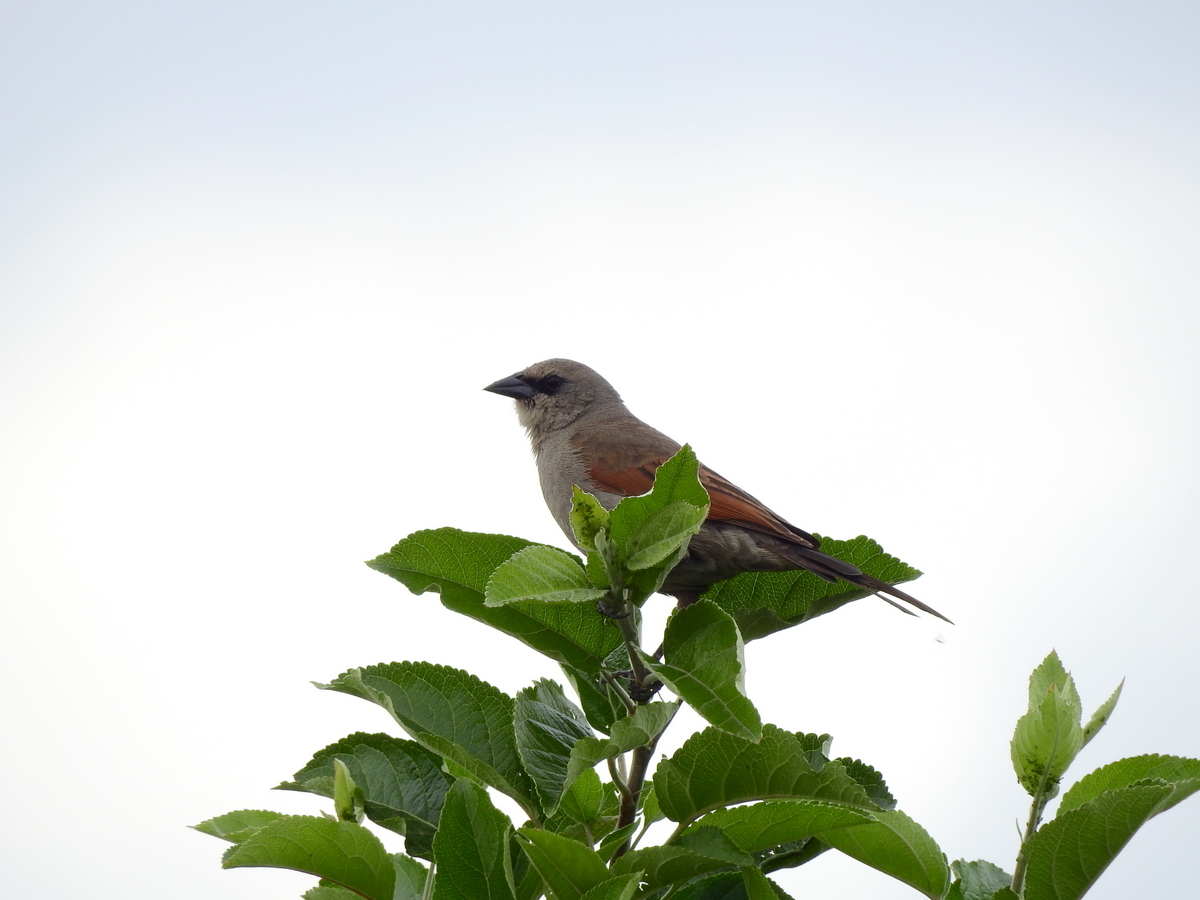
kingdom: Animalia
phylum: Chordata
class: Aves
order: Passeriformes
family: Icteridae
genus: Agelaioides
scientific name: Agelaioides badius
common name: Baywing
